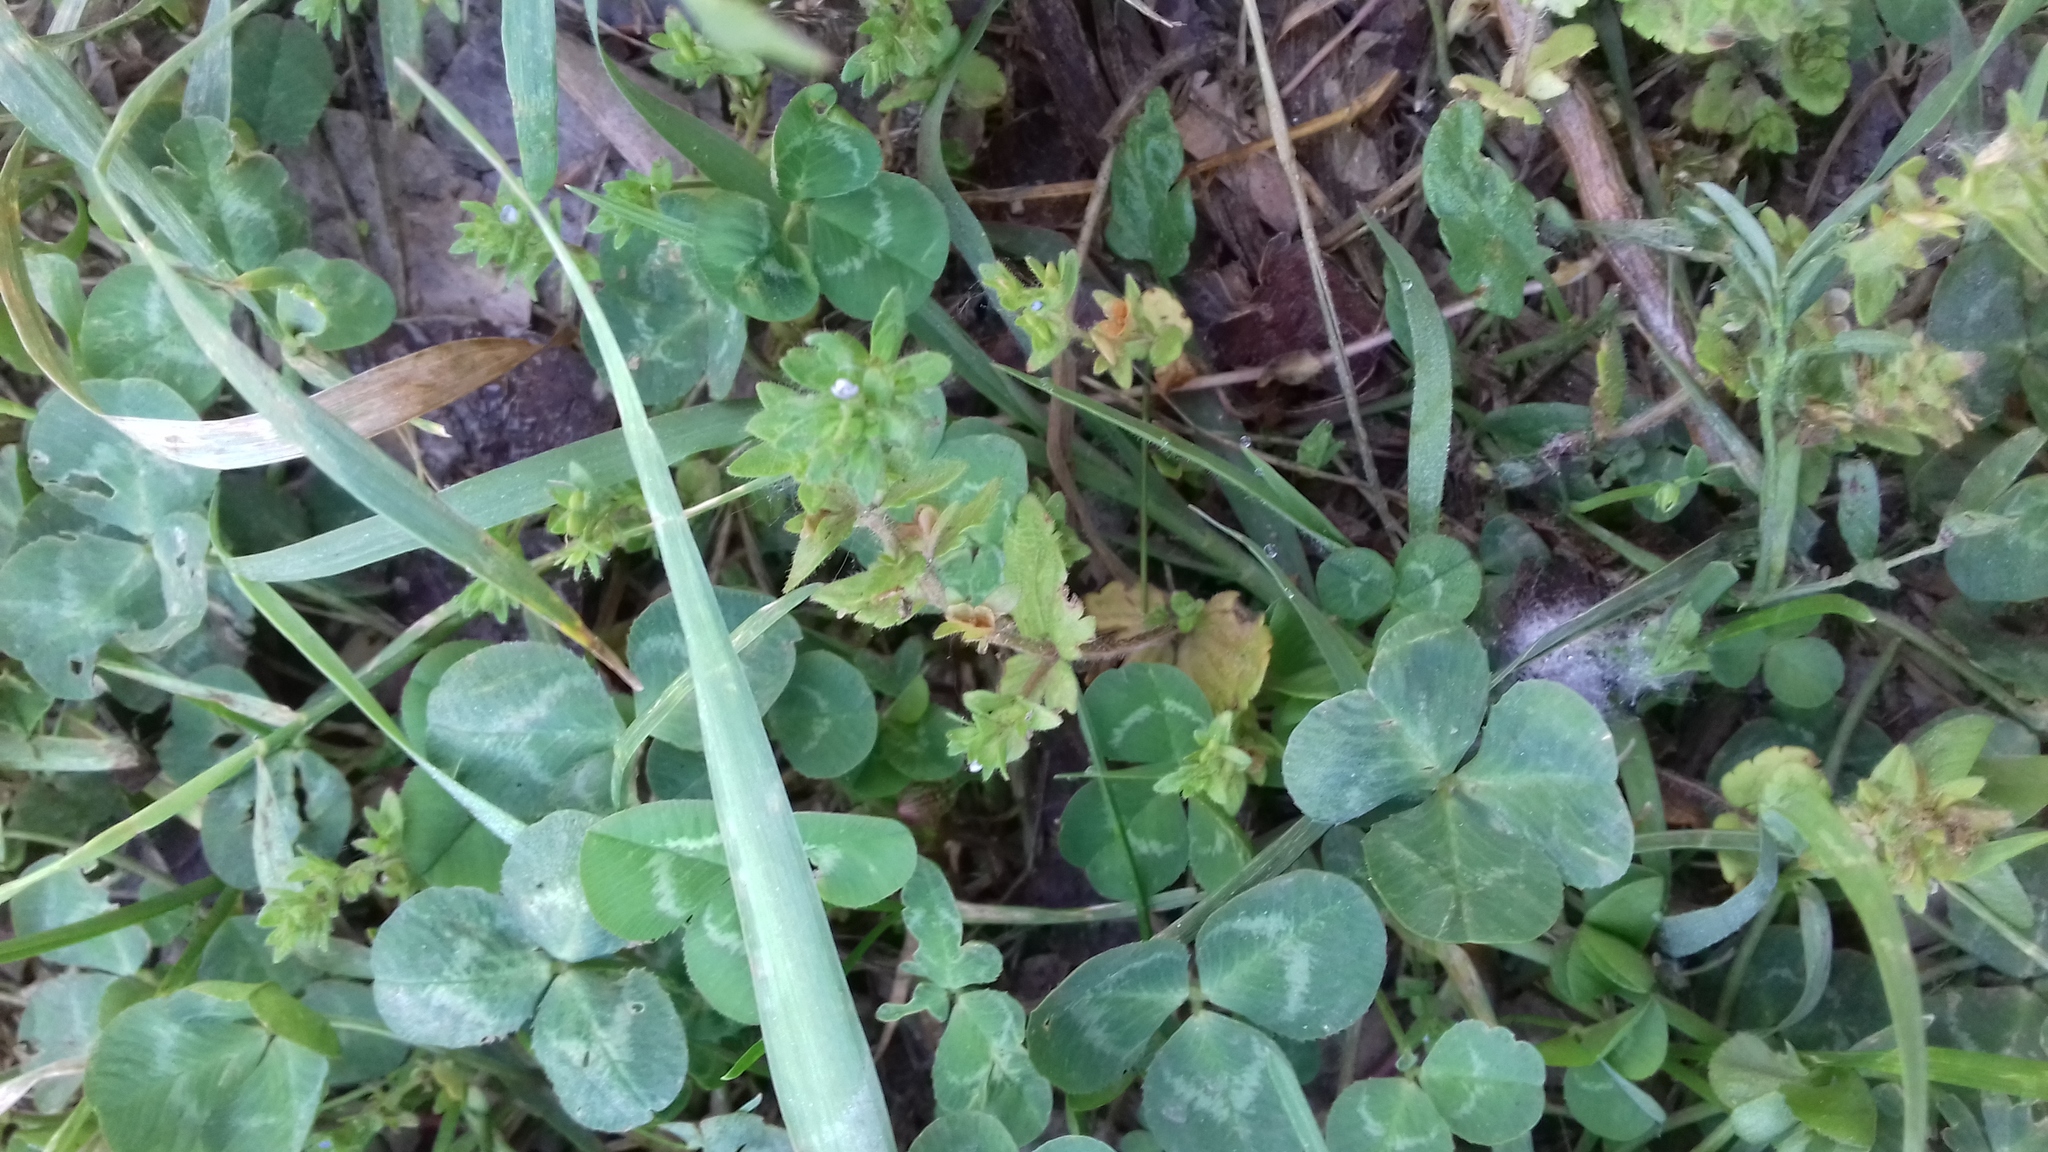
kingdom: Plantae
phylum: Tracheophyta
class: Magnoliopsida
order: Lamiales
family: Plantaginaceae
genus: Veronica
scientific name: Veronica arvensis
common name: Corn speedwell
